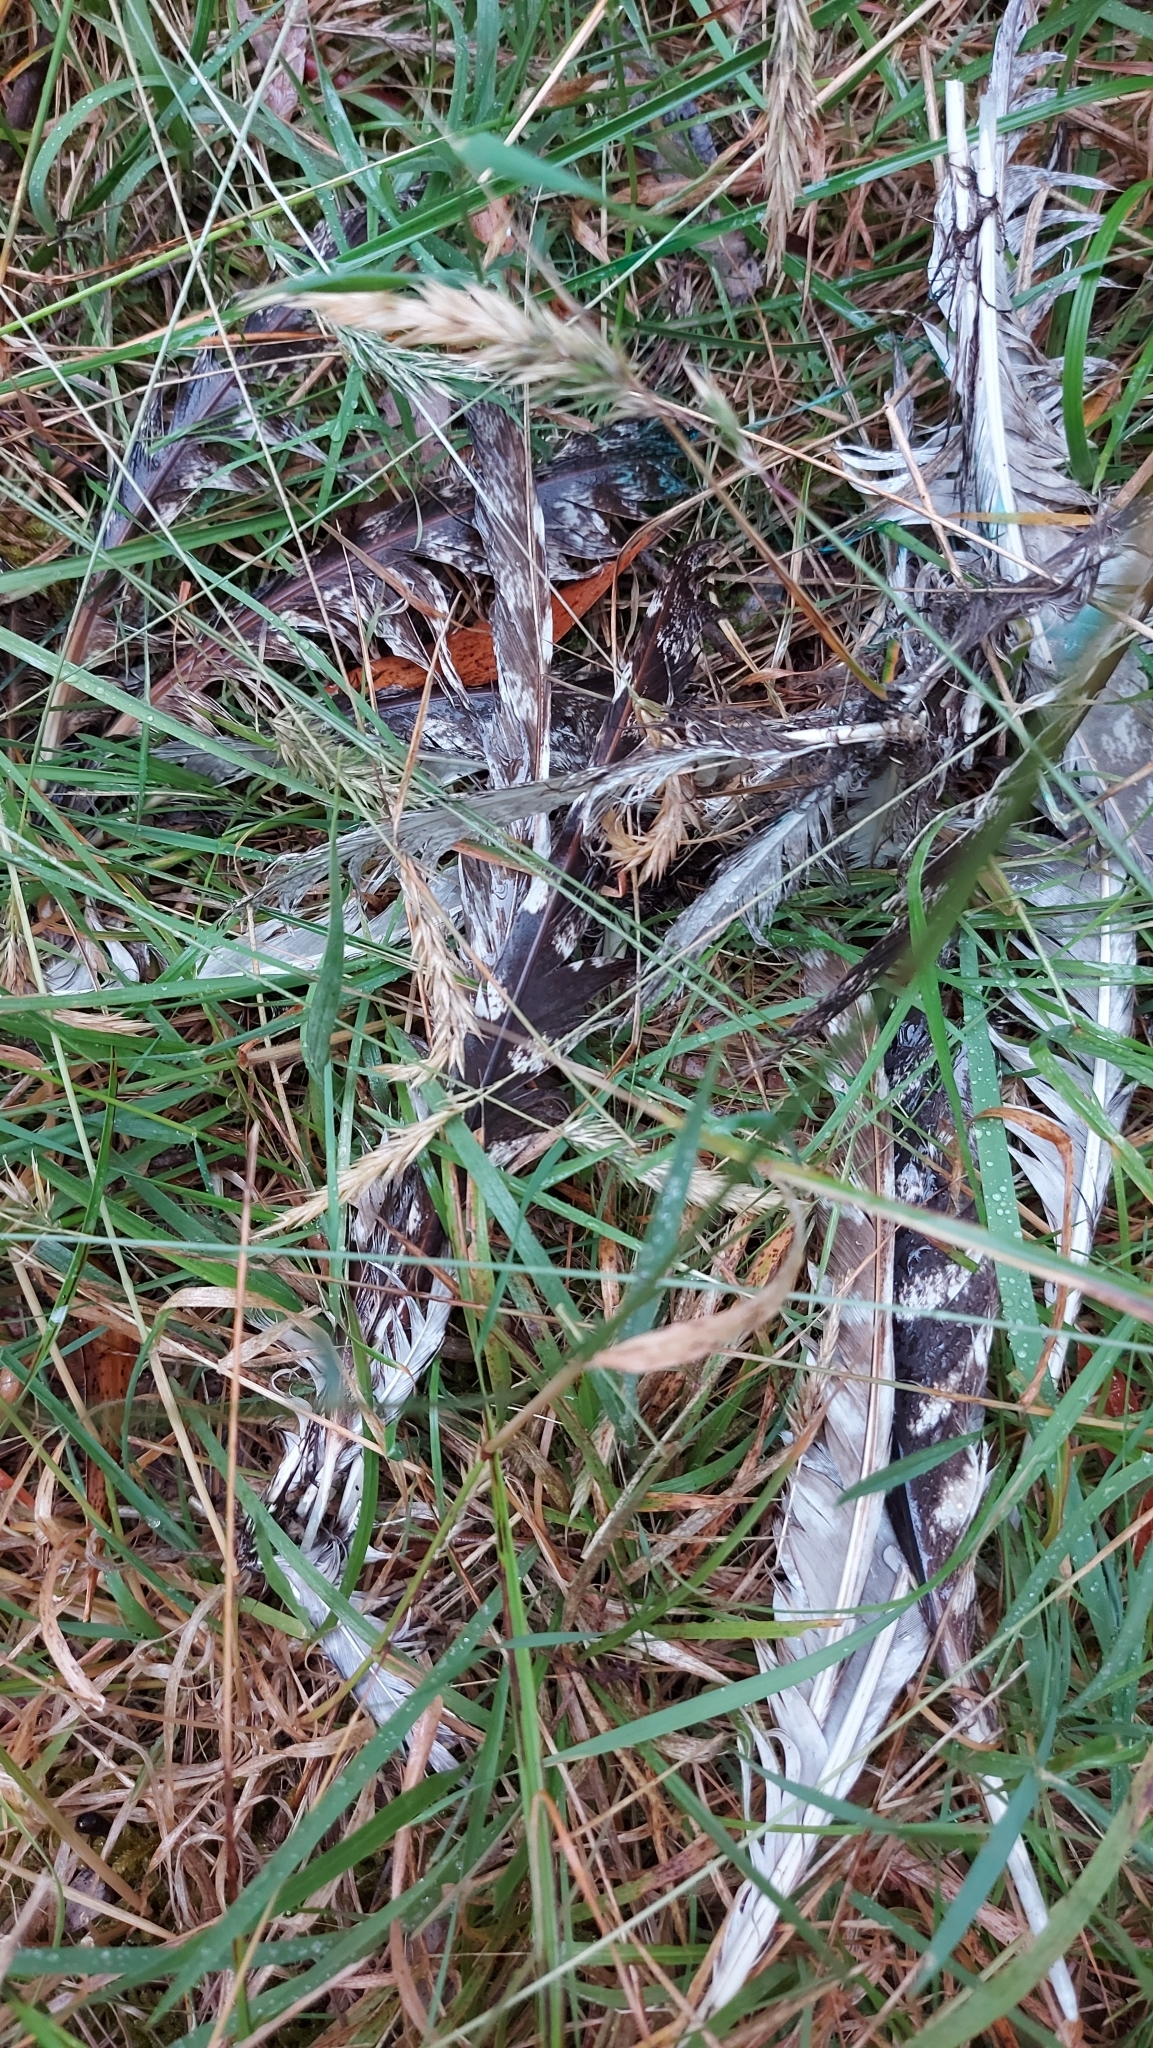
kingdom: Animalia
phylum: Chordata
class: Aves
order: Caprimulgiformes
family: Podargidae
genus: Podargus
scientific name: Podargus strigoides
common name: Tawny frogmouth
